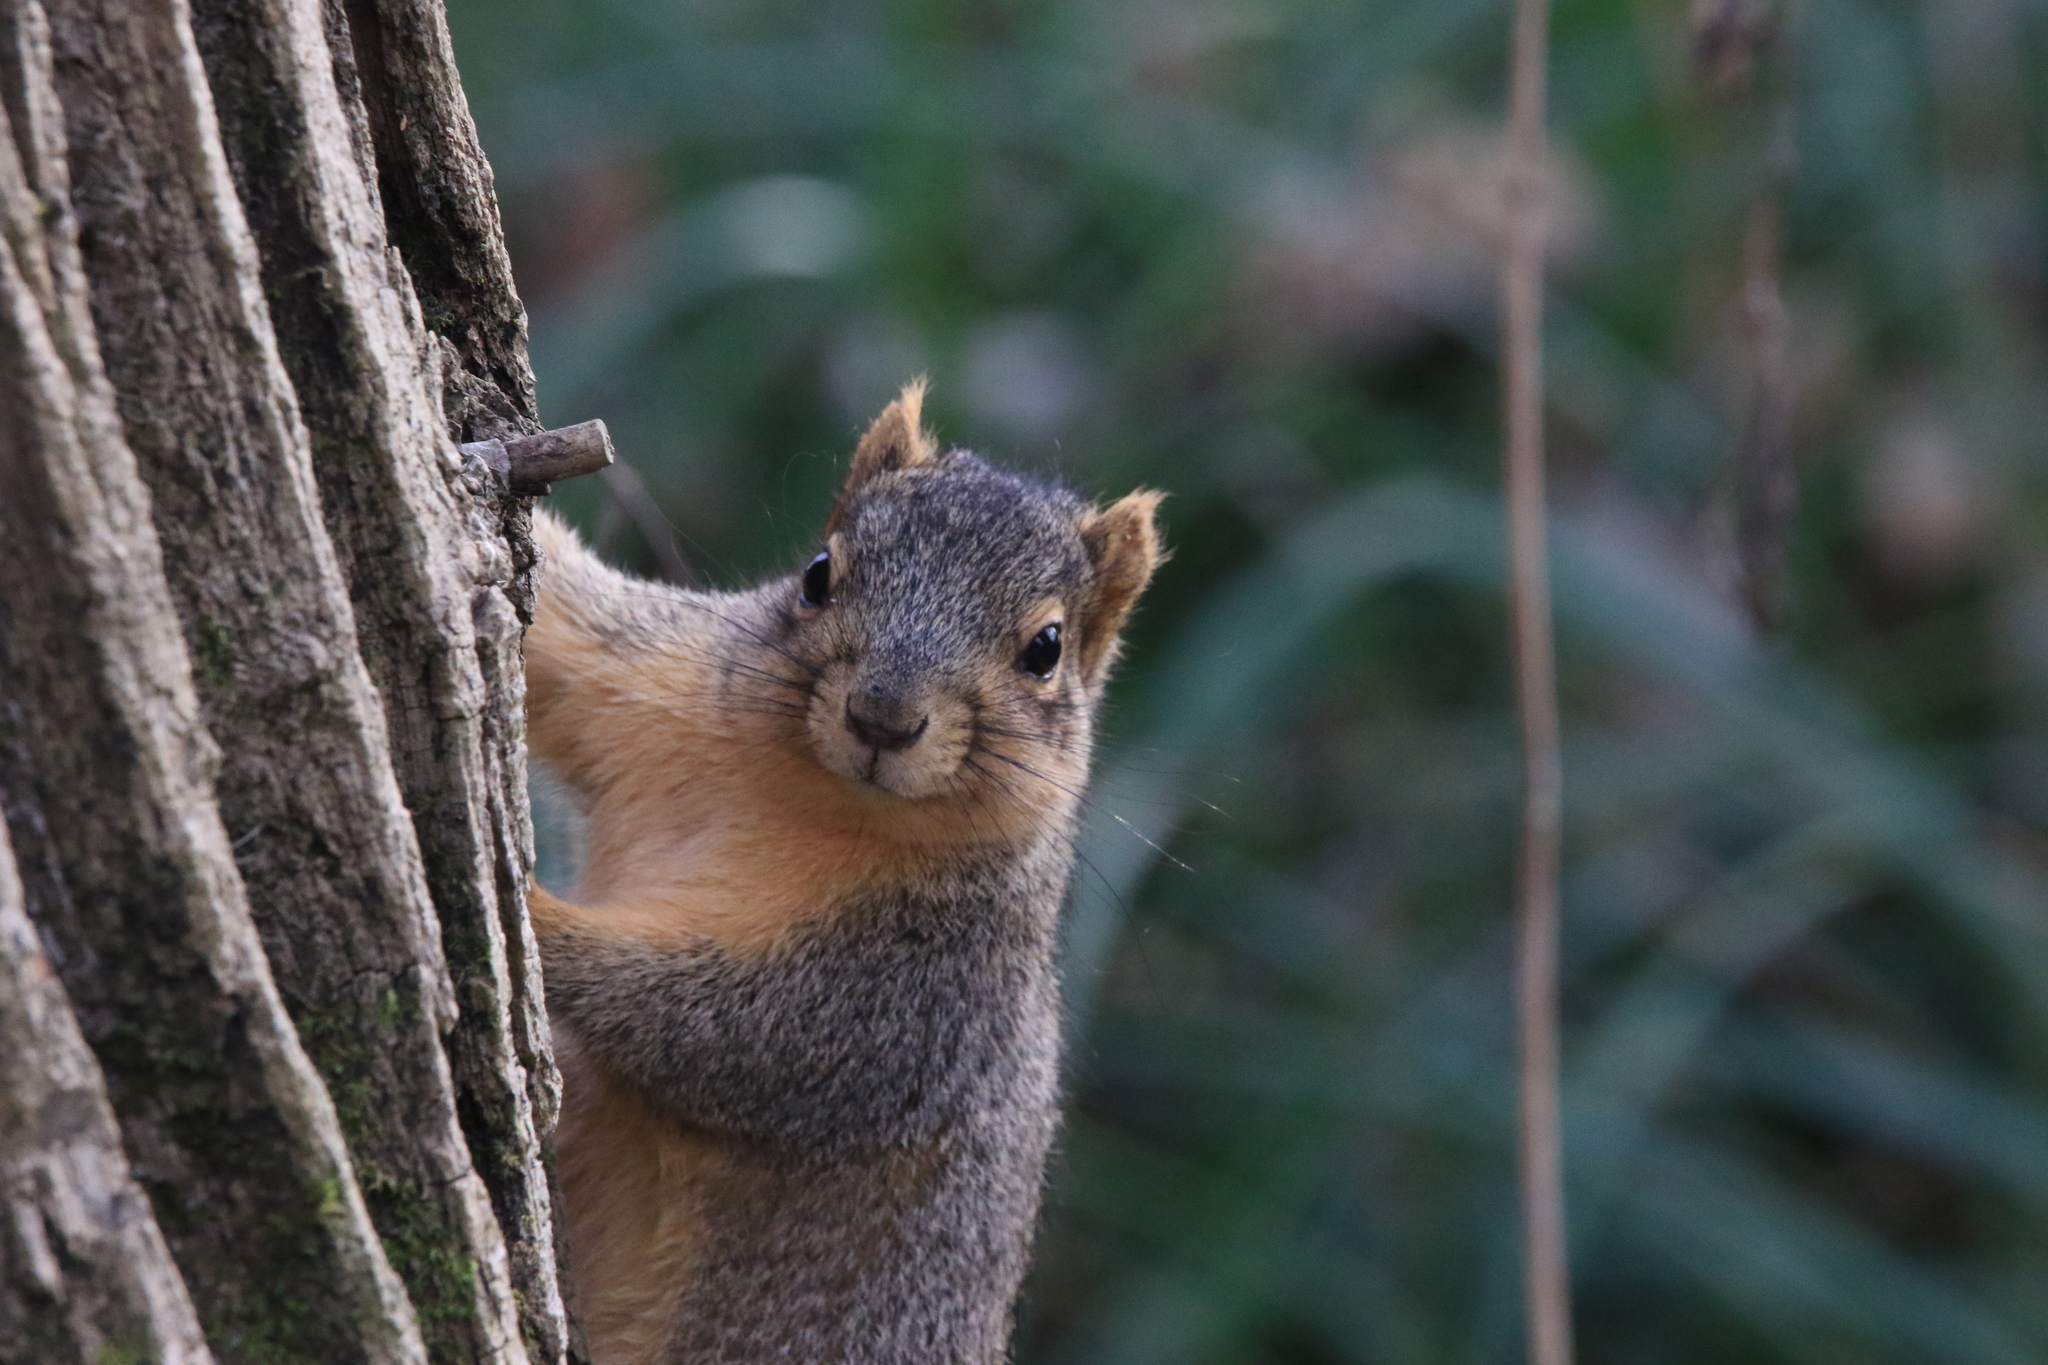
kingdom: Animalia
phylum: Chordata
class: Mammalia
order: Rodentia
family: Sciuridae
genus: Sciurus
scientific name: Sciurus niger
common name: Fox squirrel
